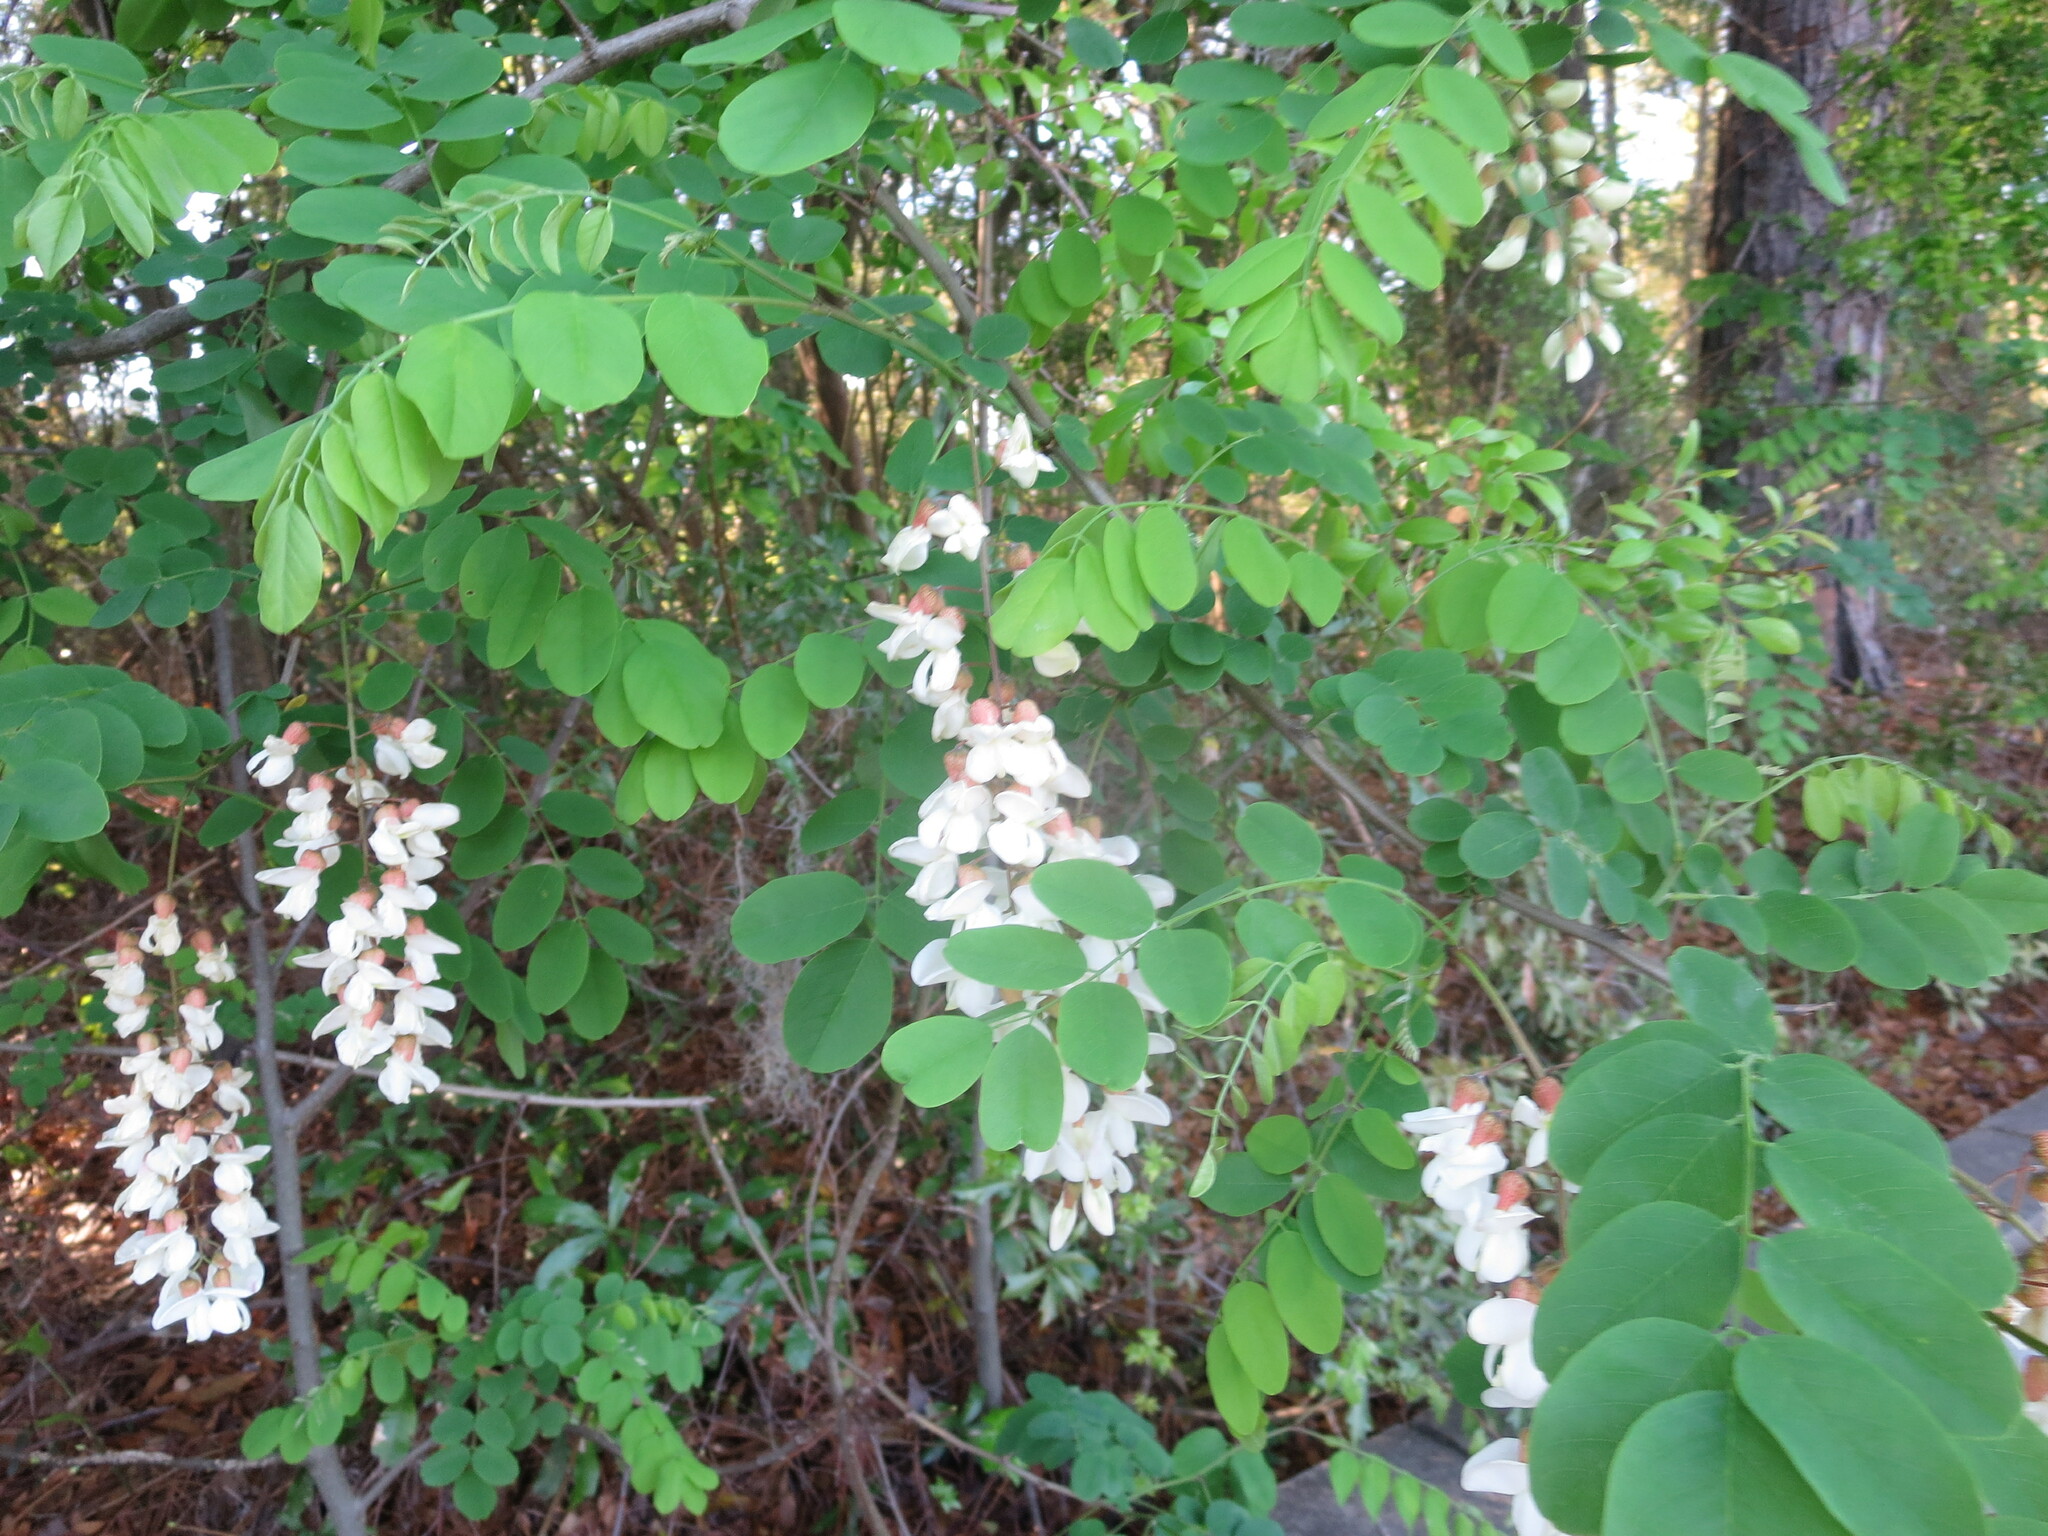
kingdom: Plantae
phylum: Tracheophyta
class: Magnoliopsida
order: Fabales
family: Fabaceae
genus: Robinia
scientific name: Robinia pseudoacacia
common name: Black locust
